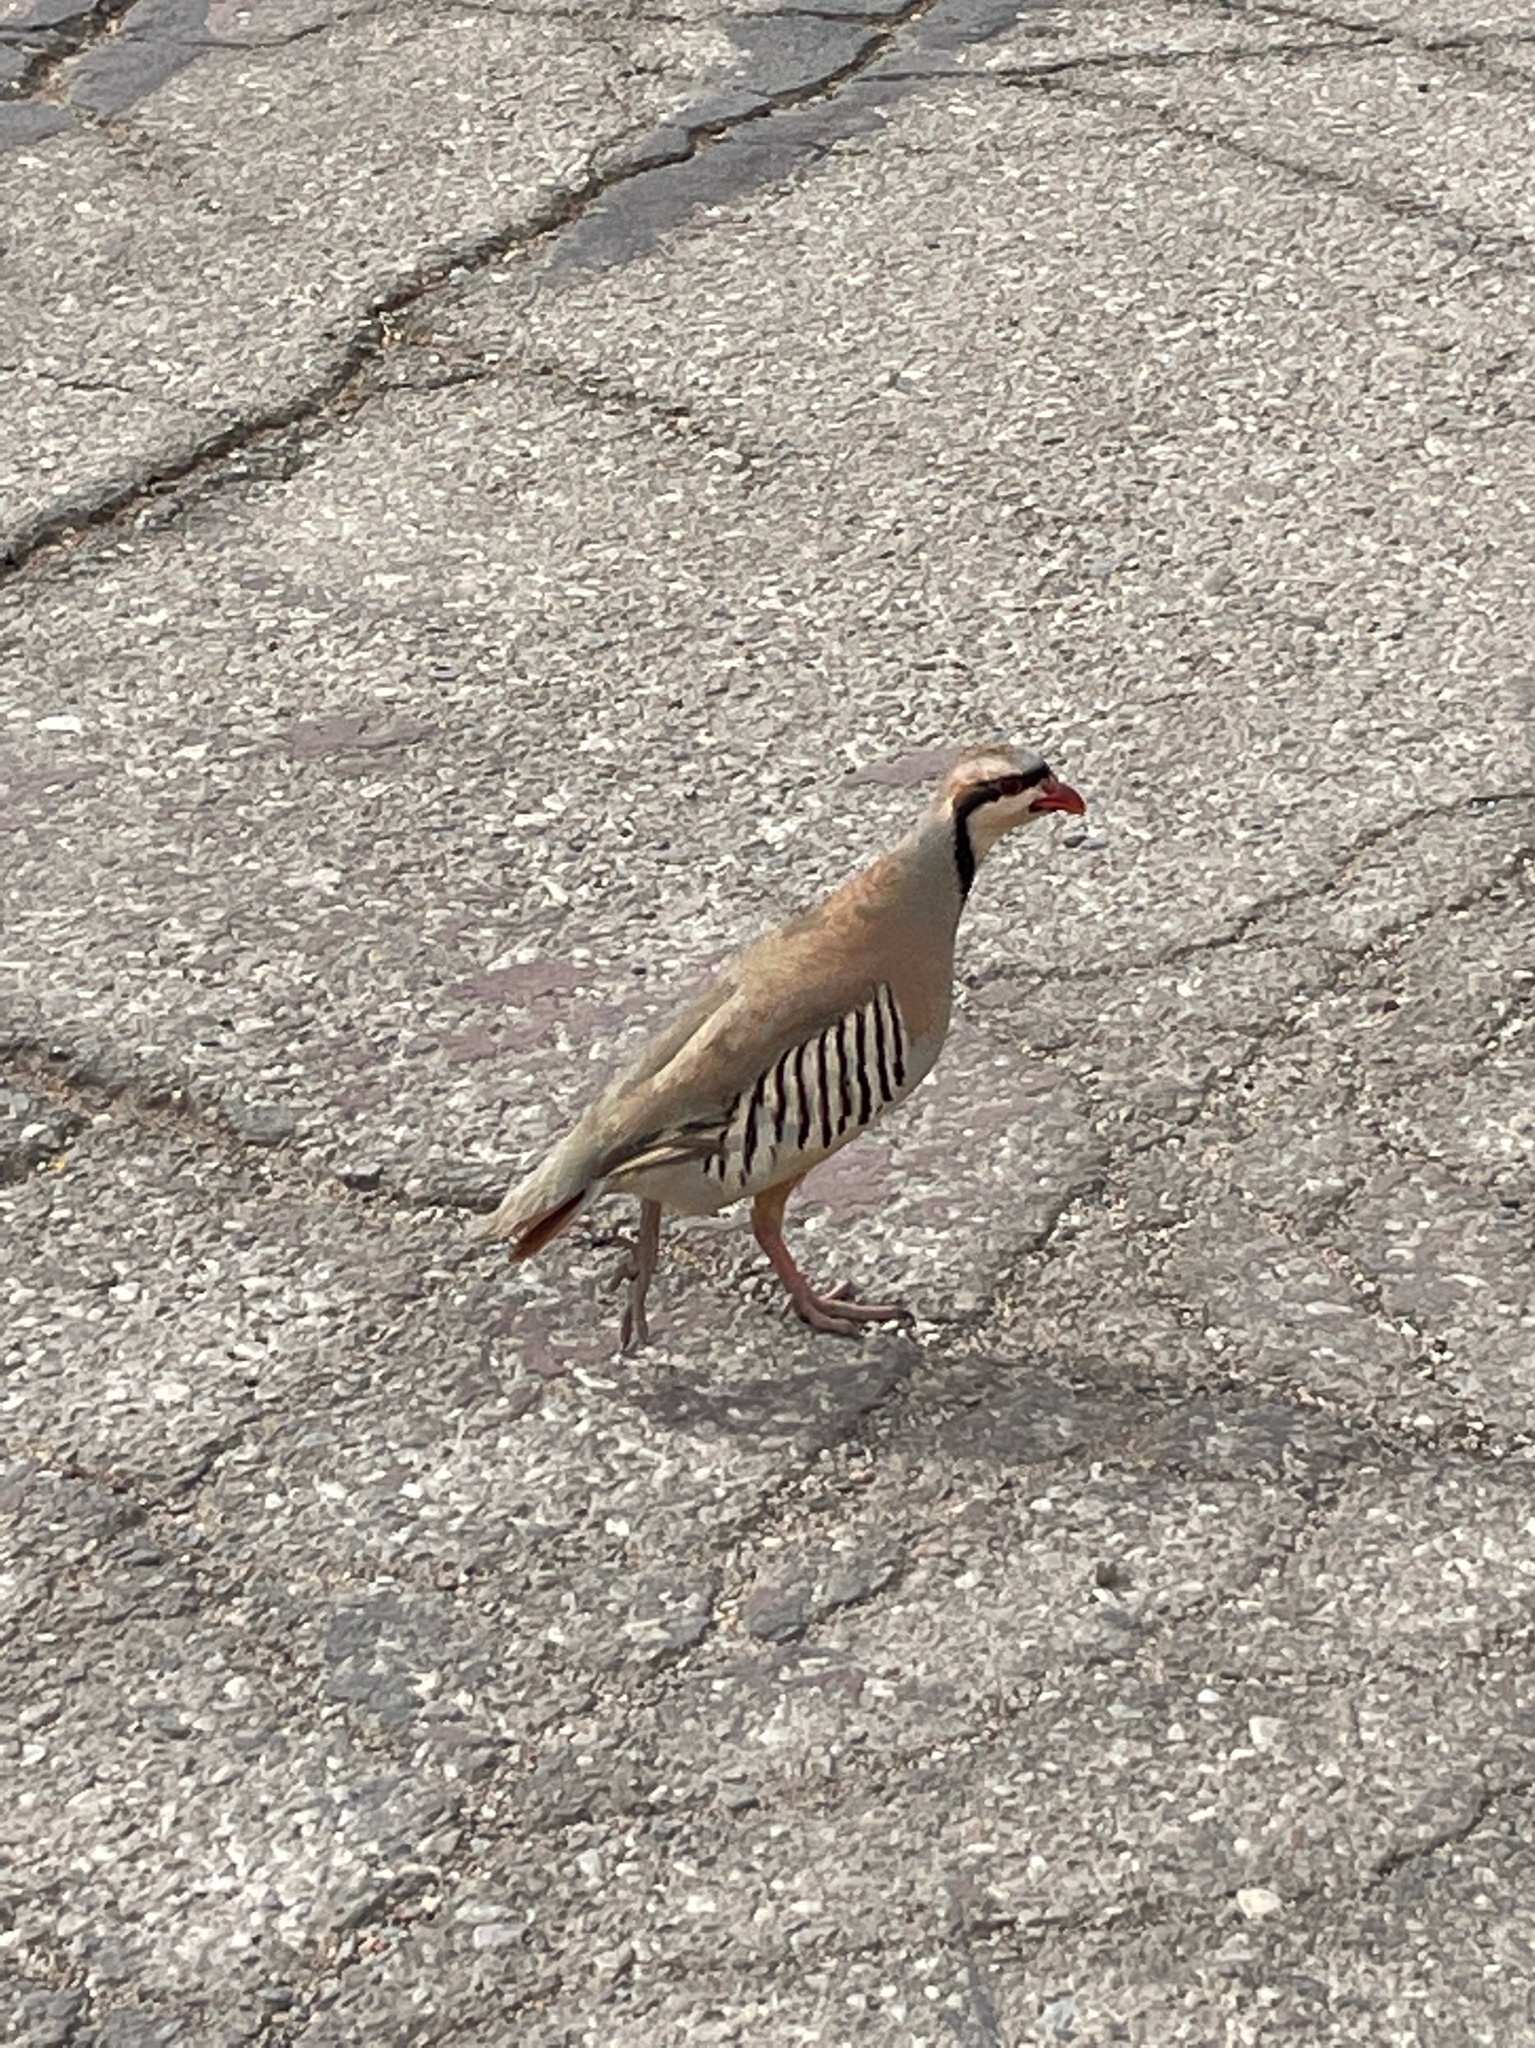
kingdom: Animalia
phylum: Chordata
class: Aves
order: Galliformes
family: Phasianidae
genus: Alectoris
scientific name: Alectoris chukar
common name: Chukar
